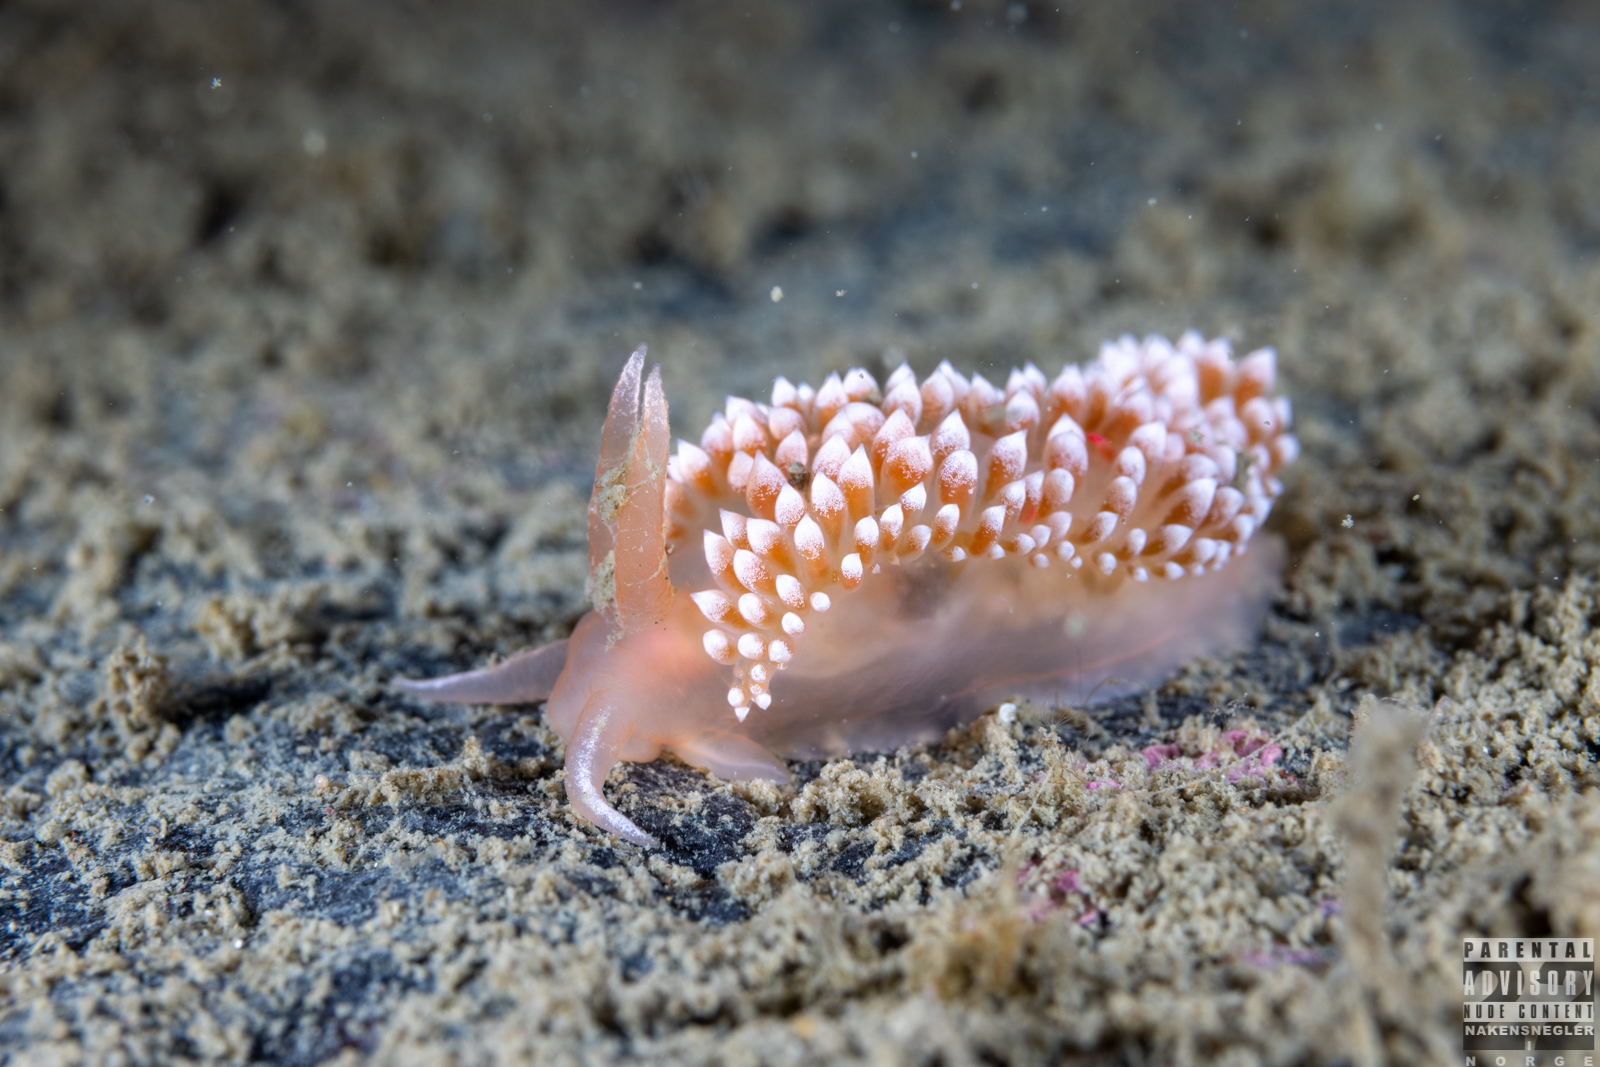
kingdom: Animalia
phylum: Mollusca
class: Gastropoda
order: Nudibranchia
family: Coryphellidae
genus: Coryphella
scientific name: Coryphella verrucosa
